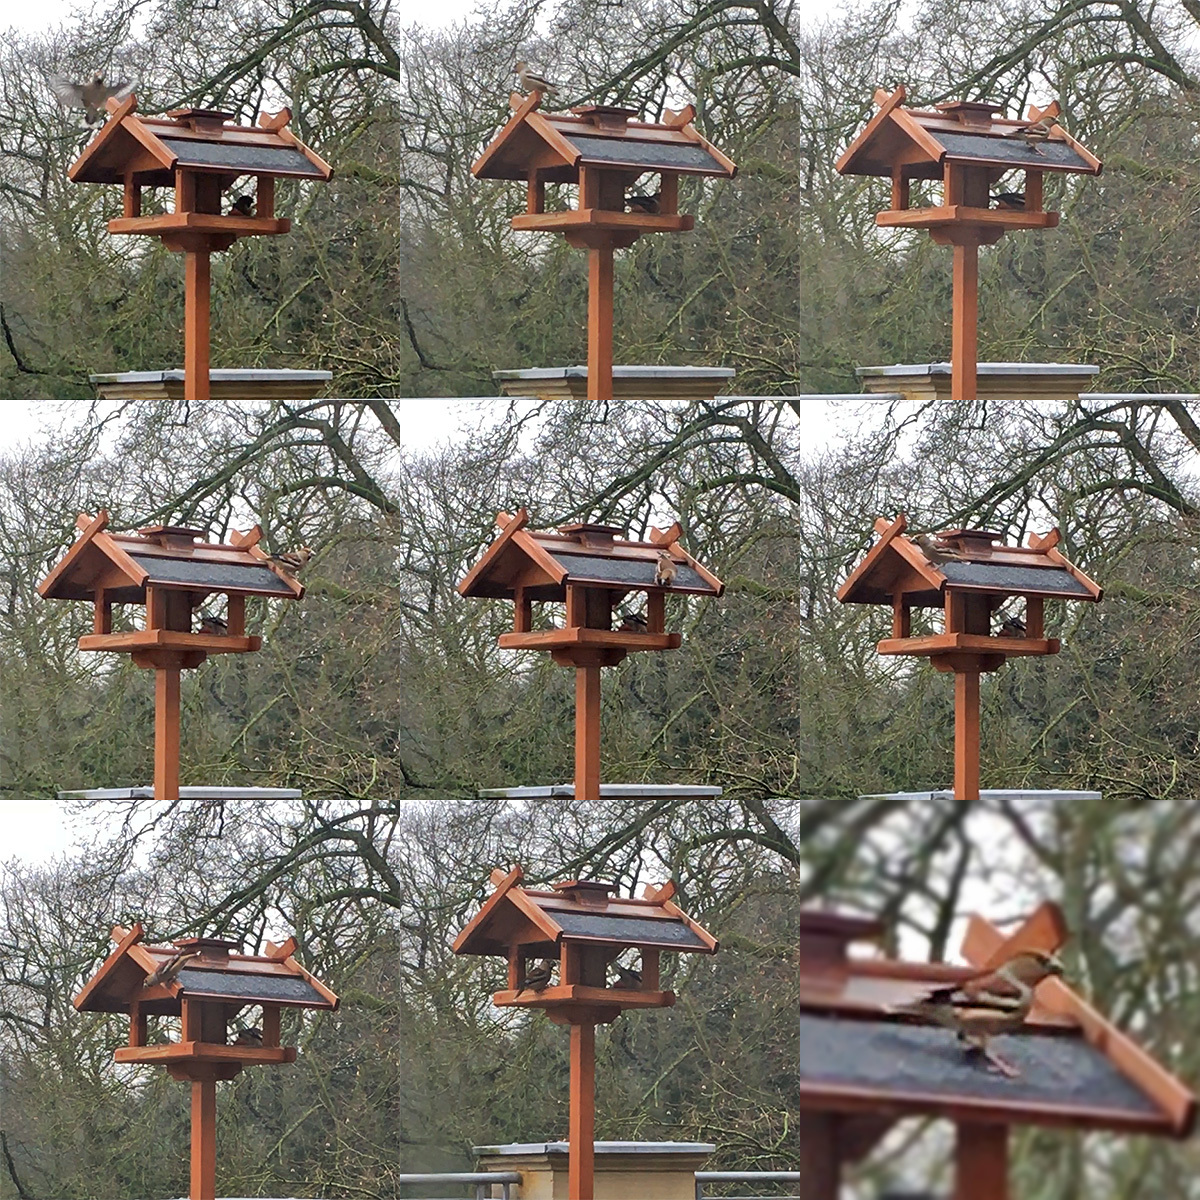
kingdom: Animalia
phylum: Chordata
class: Aves
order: Passeriformes
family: Fringillidae
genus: Coccothraustes
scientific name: Coccothraustes coccothraustes
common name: Hawfinch
